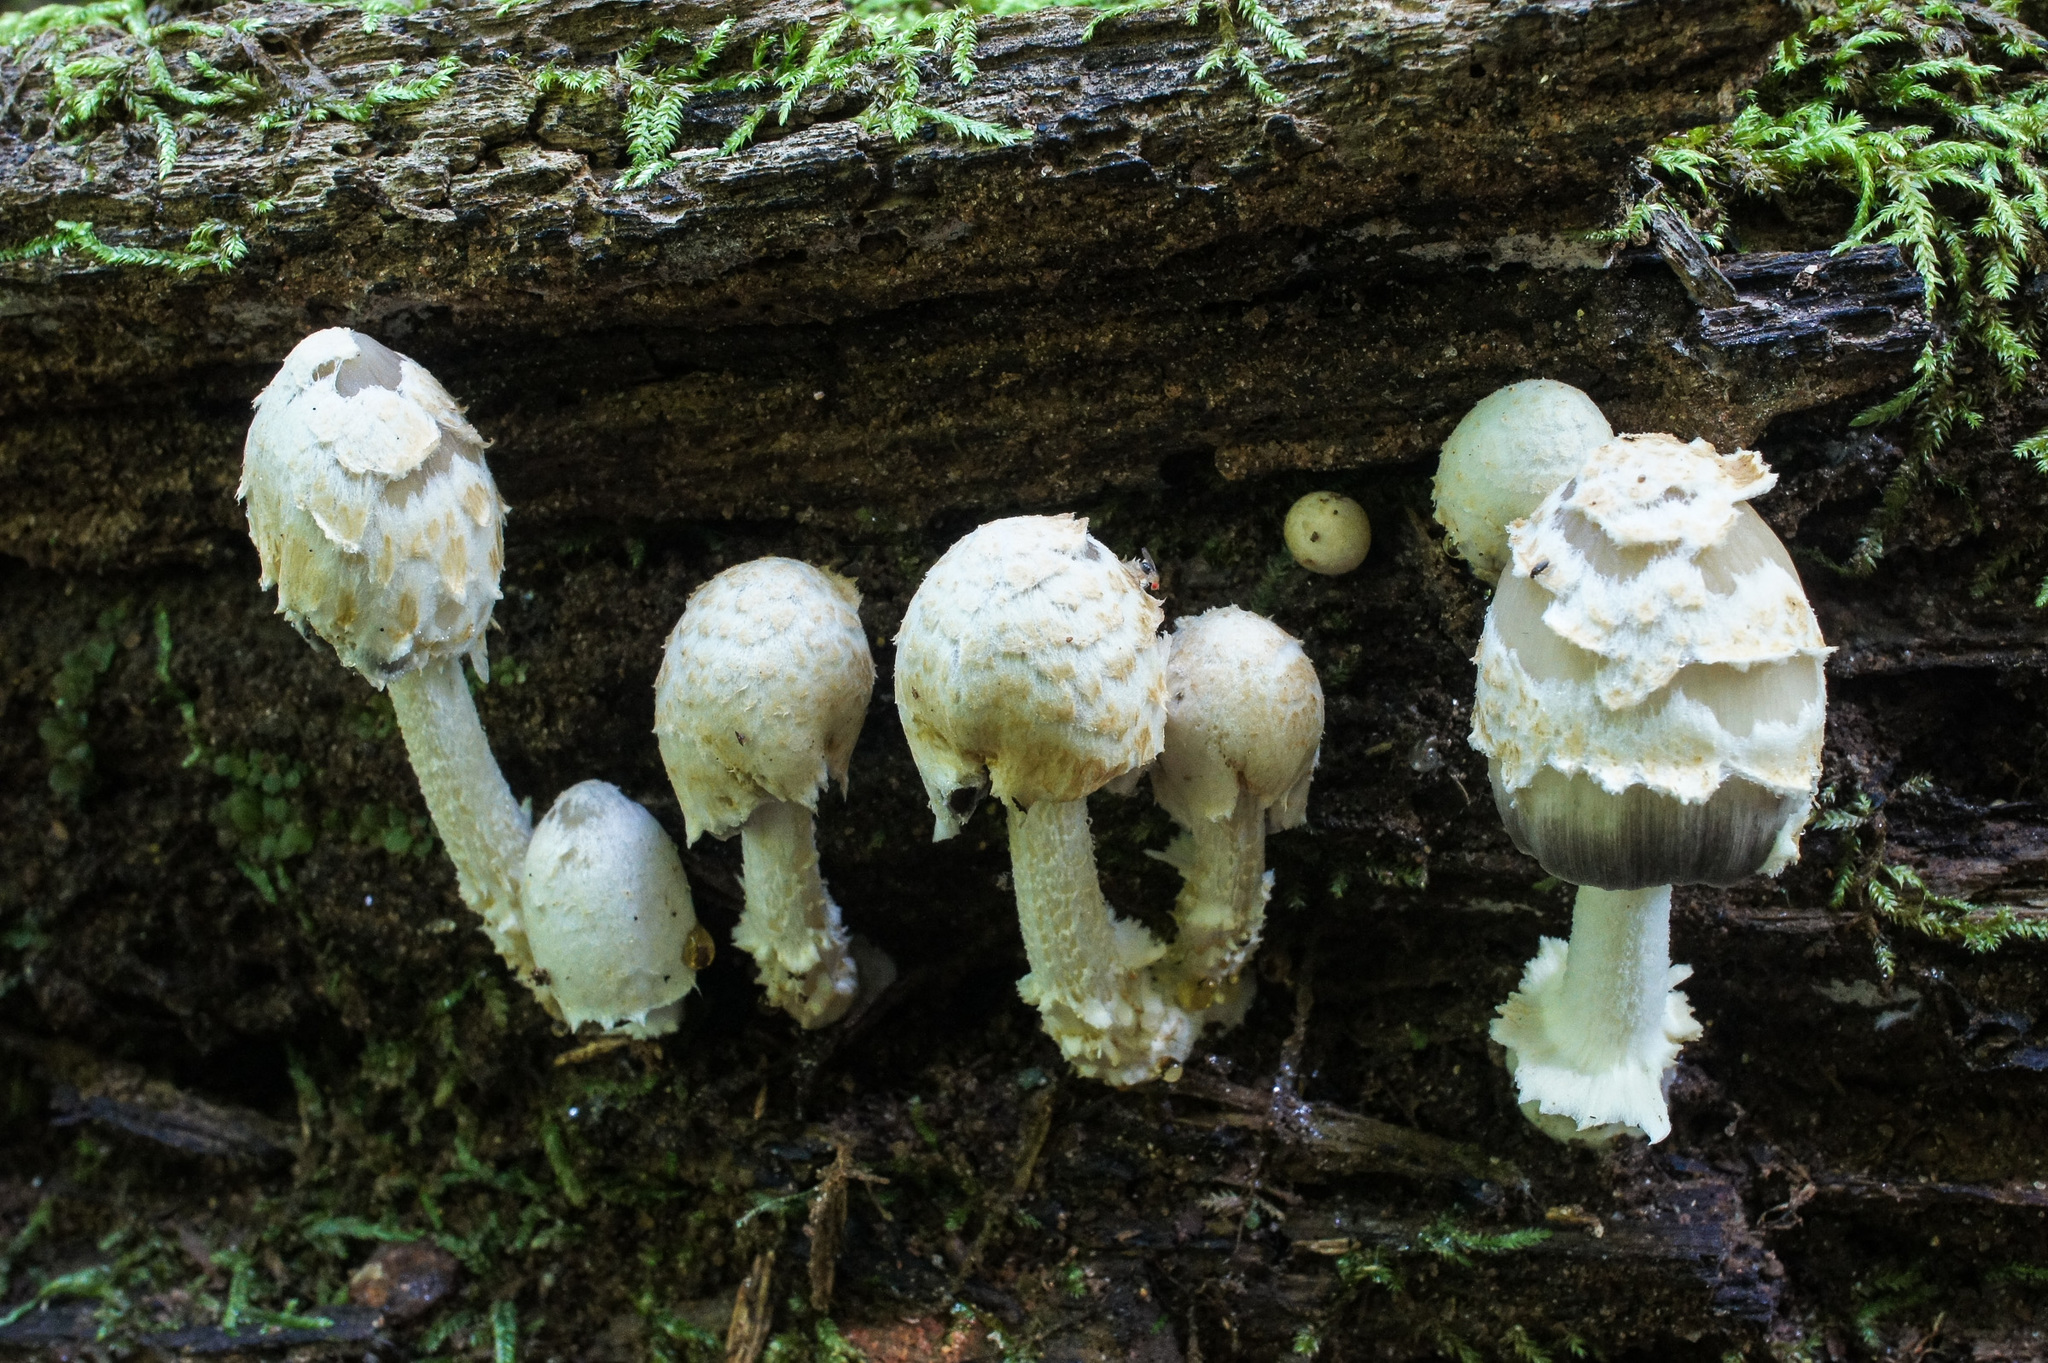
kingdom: Fungi
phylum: Basidiomycota
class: Agaricomycetes
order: Agaricales
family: Psathyrellaceae
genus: Coprinopsis
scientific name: Coprinopsis variegata
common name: Scaly ink cap
